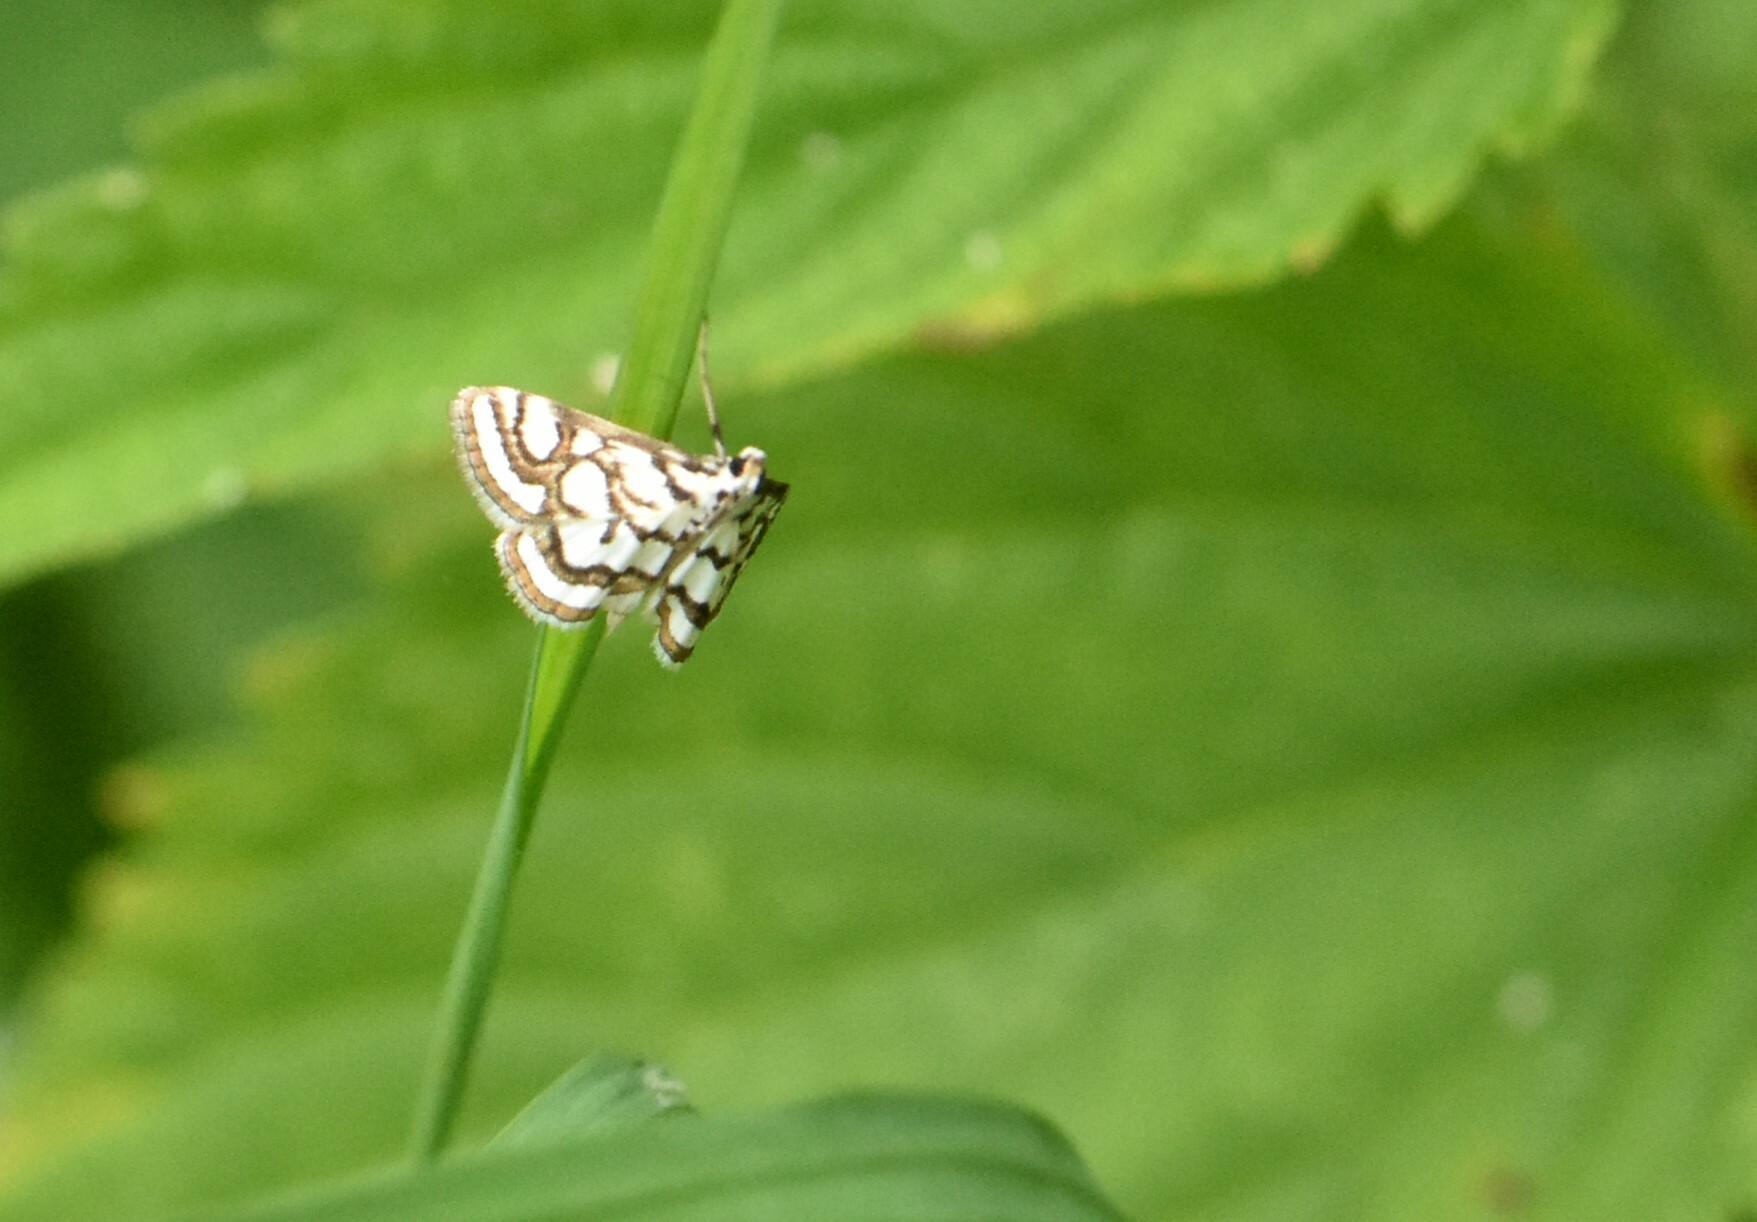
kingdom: Animalia
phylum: Arthropoda
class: Insecta
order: Lepidoptera
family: Crambidae
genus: Nymphula
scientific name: Nymphula nitidulata
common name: Beautiful china mark
